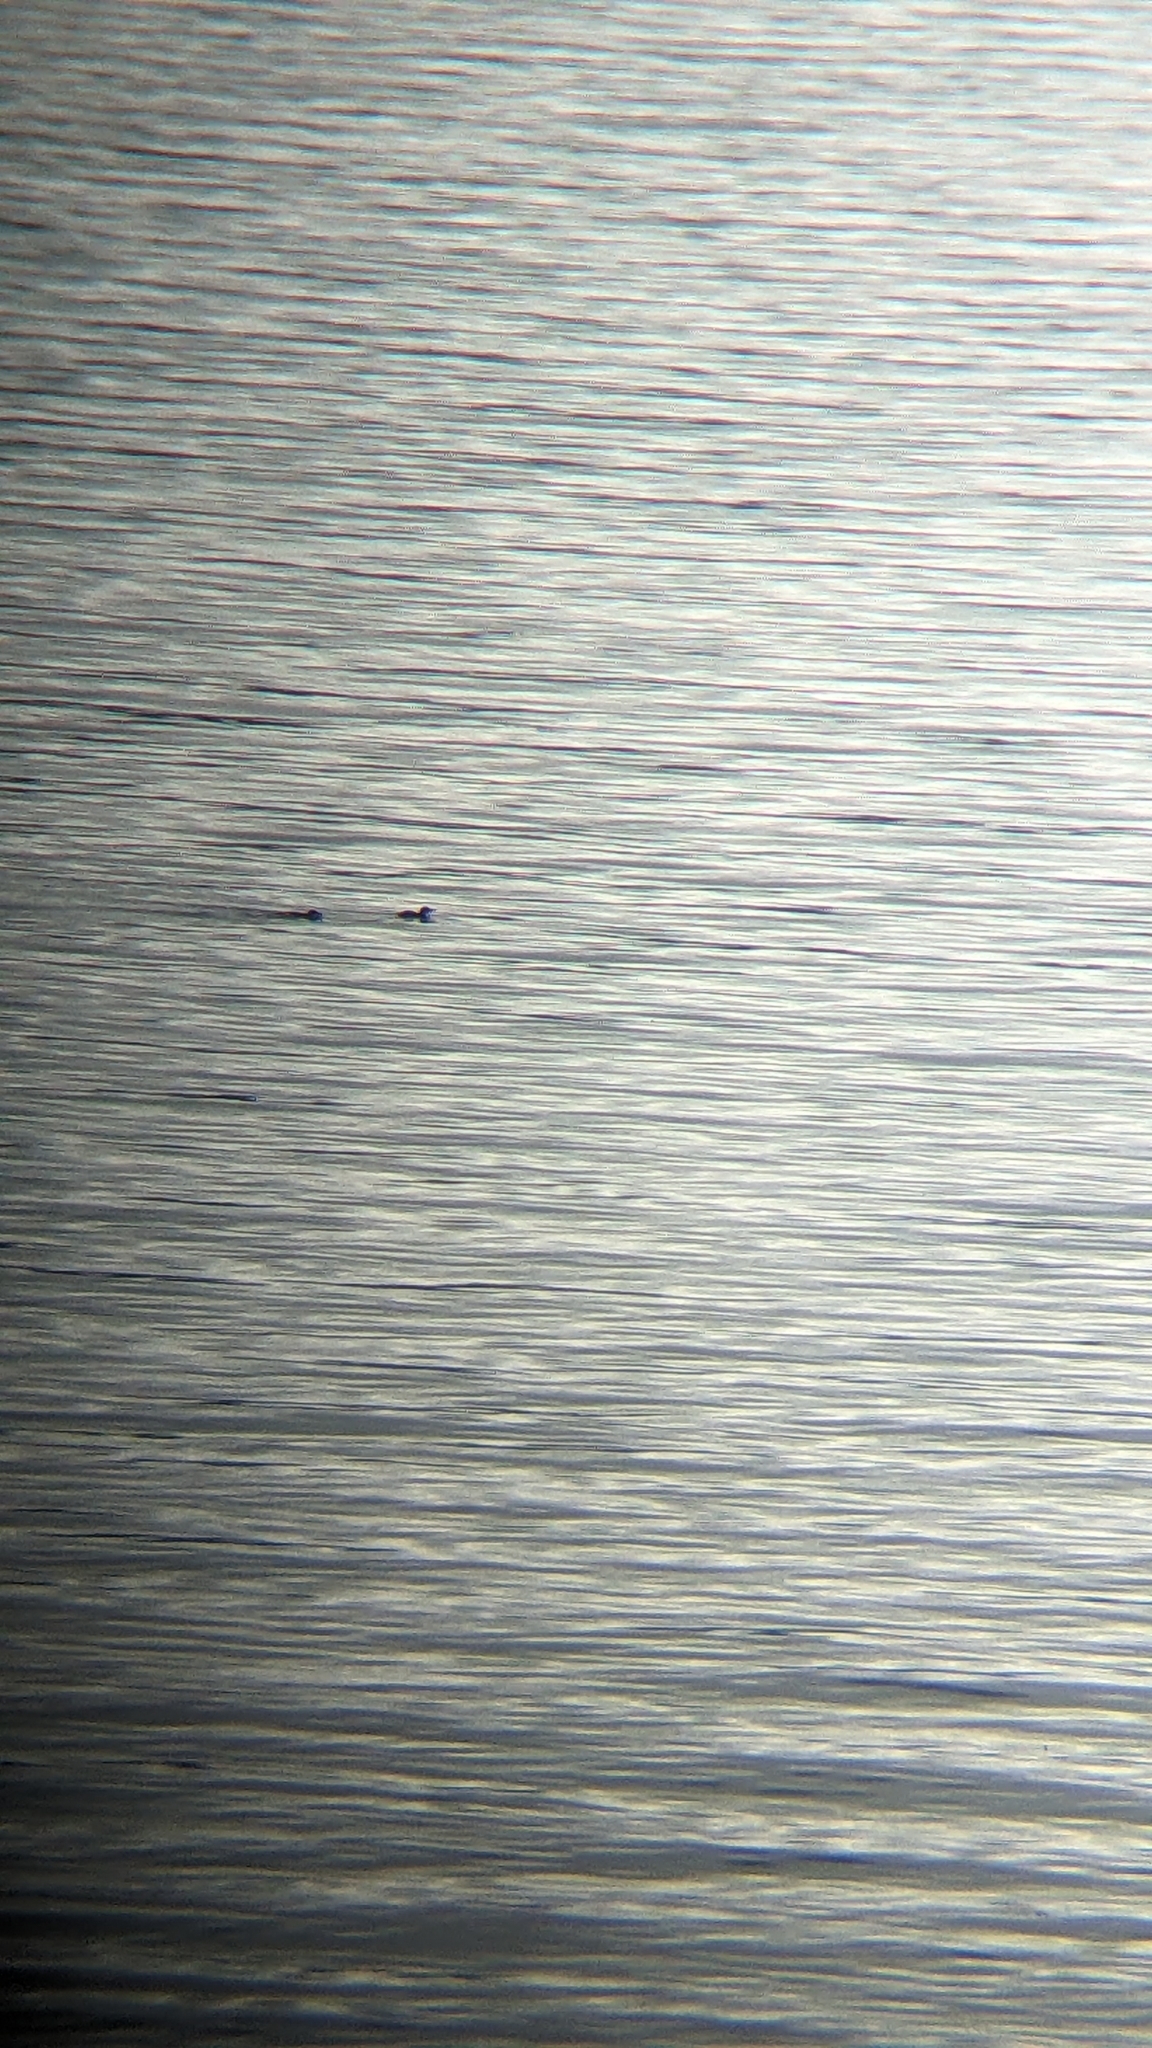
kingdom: Animalia
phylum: Chordata
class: Aves
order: Sphenisciformes
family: Spheniscidae
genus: Eudyptula
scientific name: Eudyptula minor
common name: Little penguin
